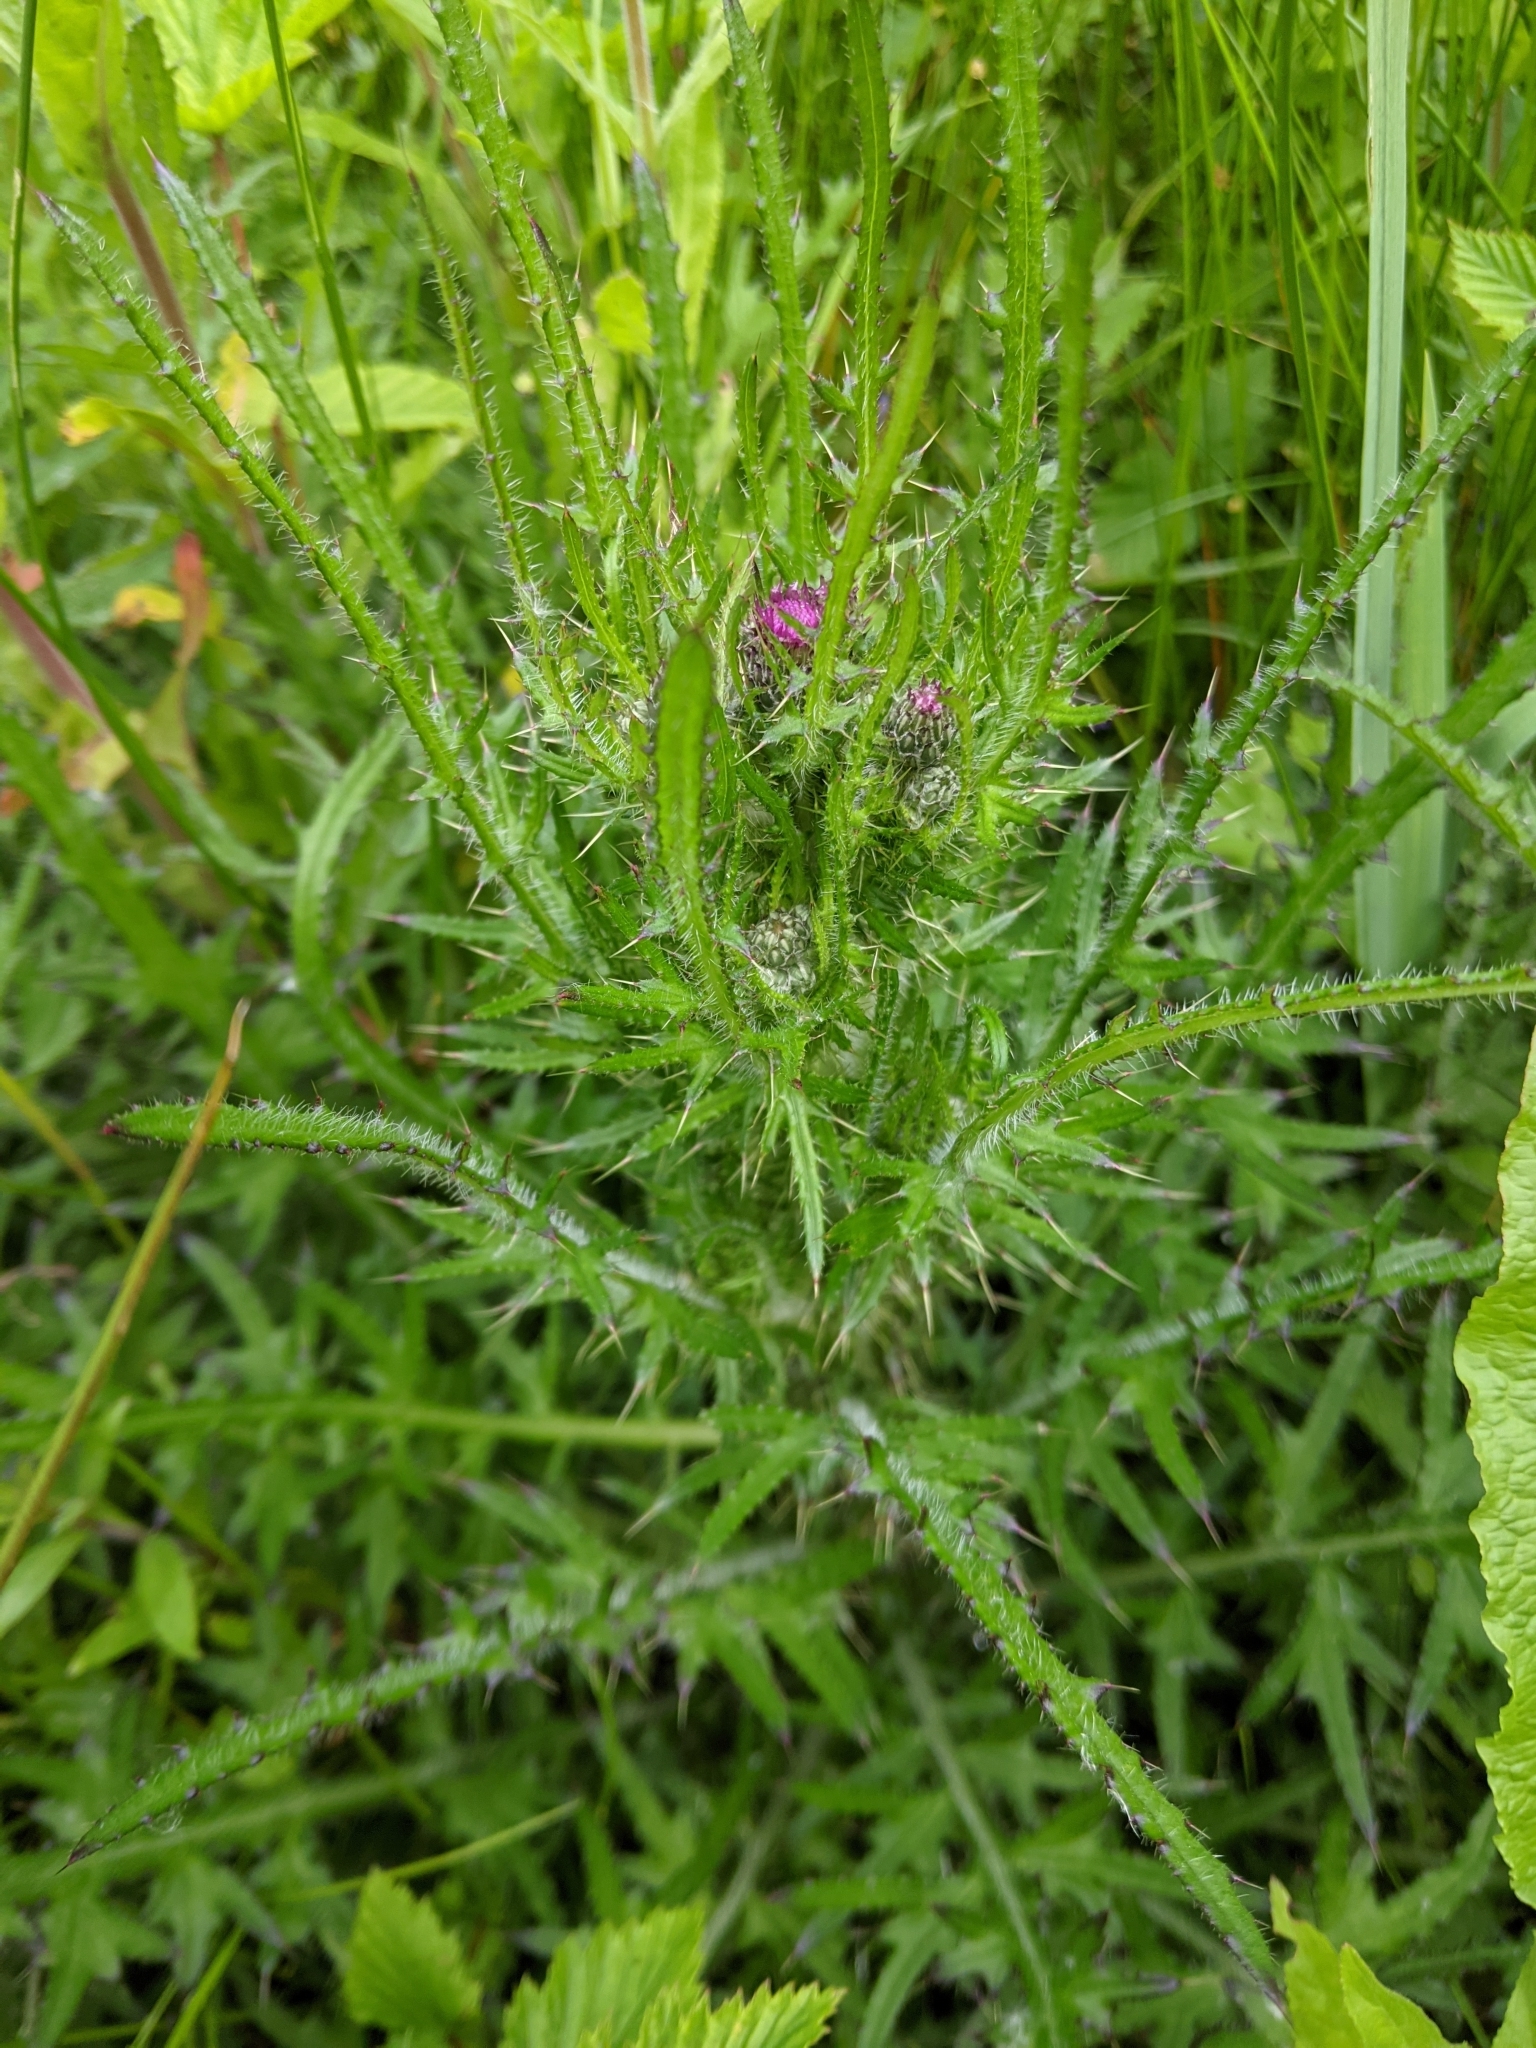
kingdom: Plantae
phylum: Tracheophyta
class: Magnoliopsida
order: Asterales
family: Asteraceae
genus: Cirsium
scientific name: Cirsium palustre
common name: Marsh thistle
